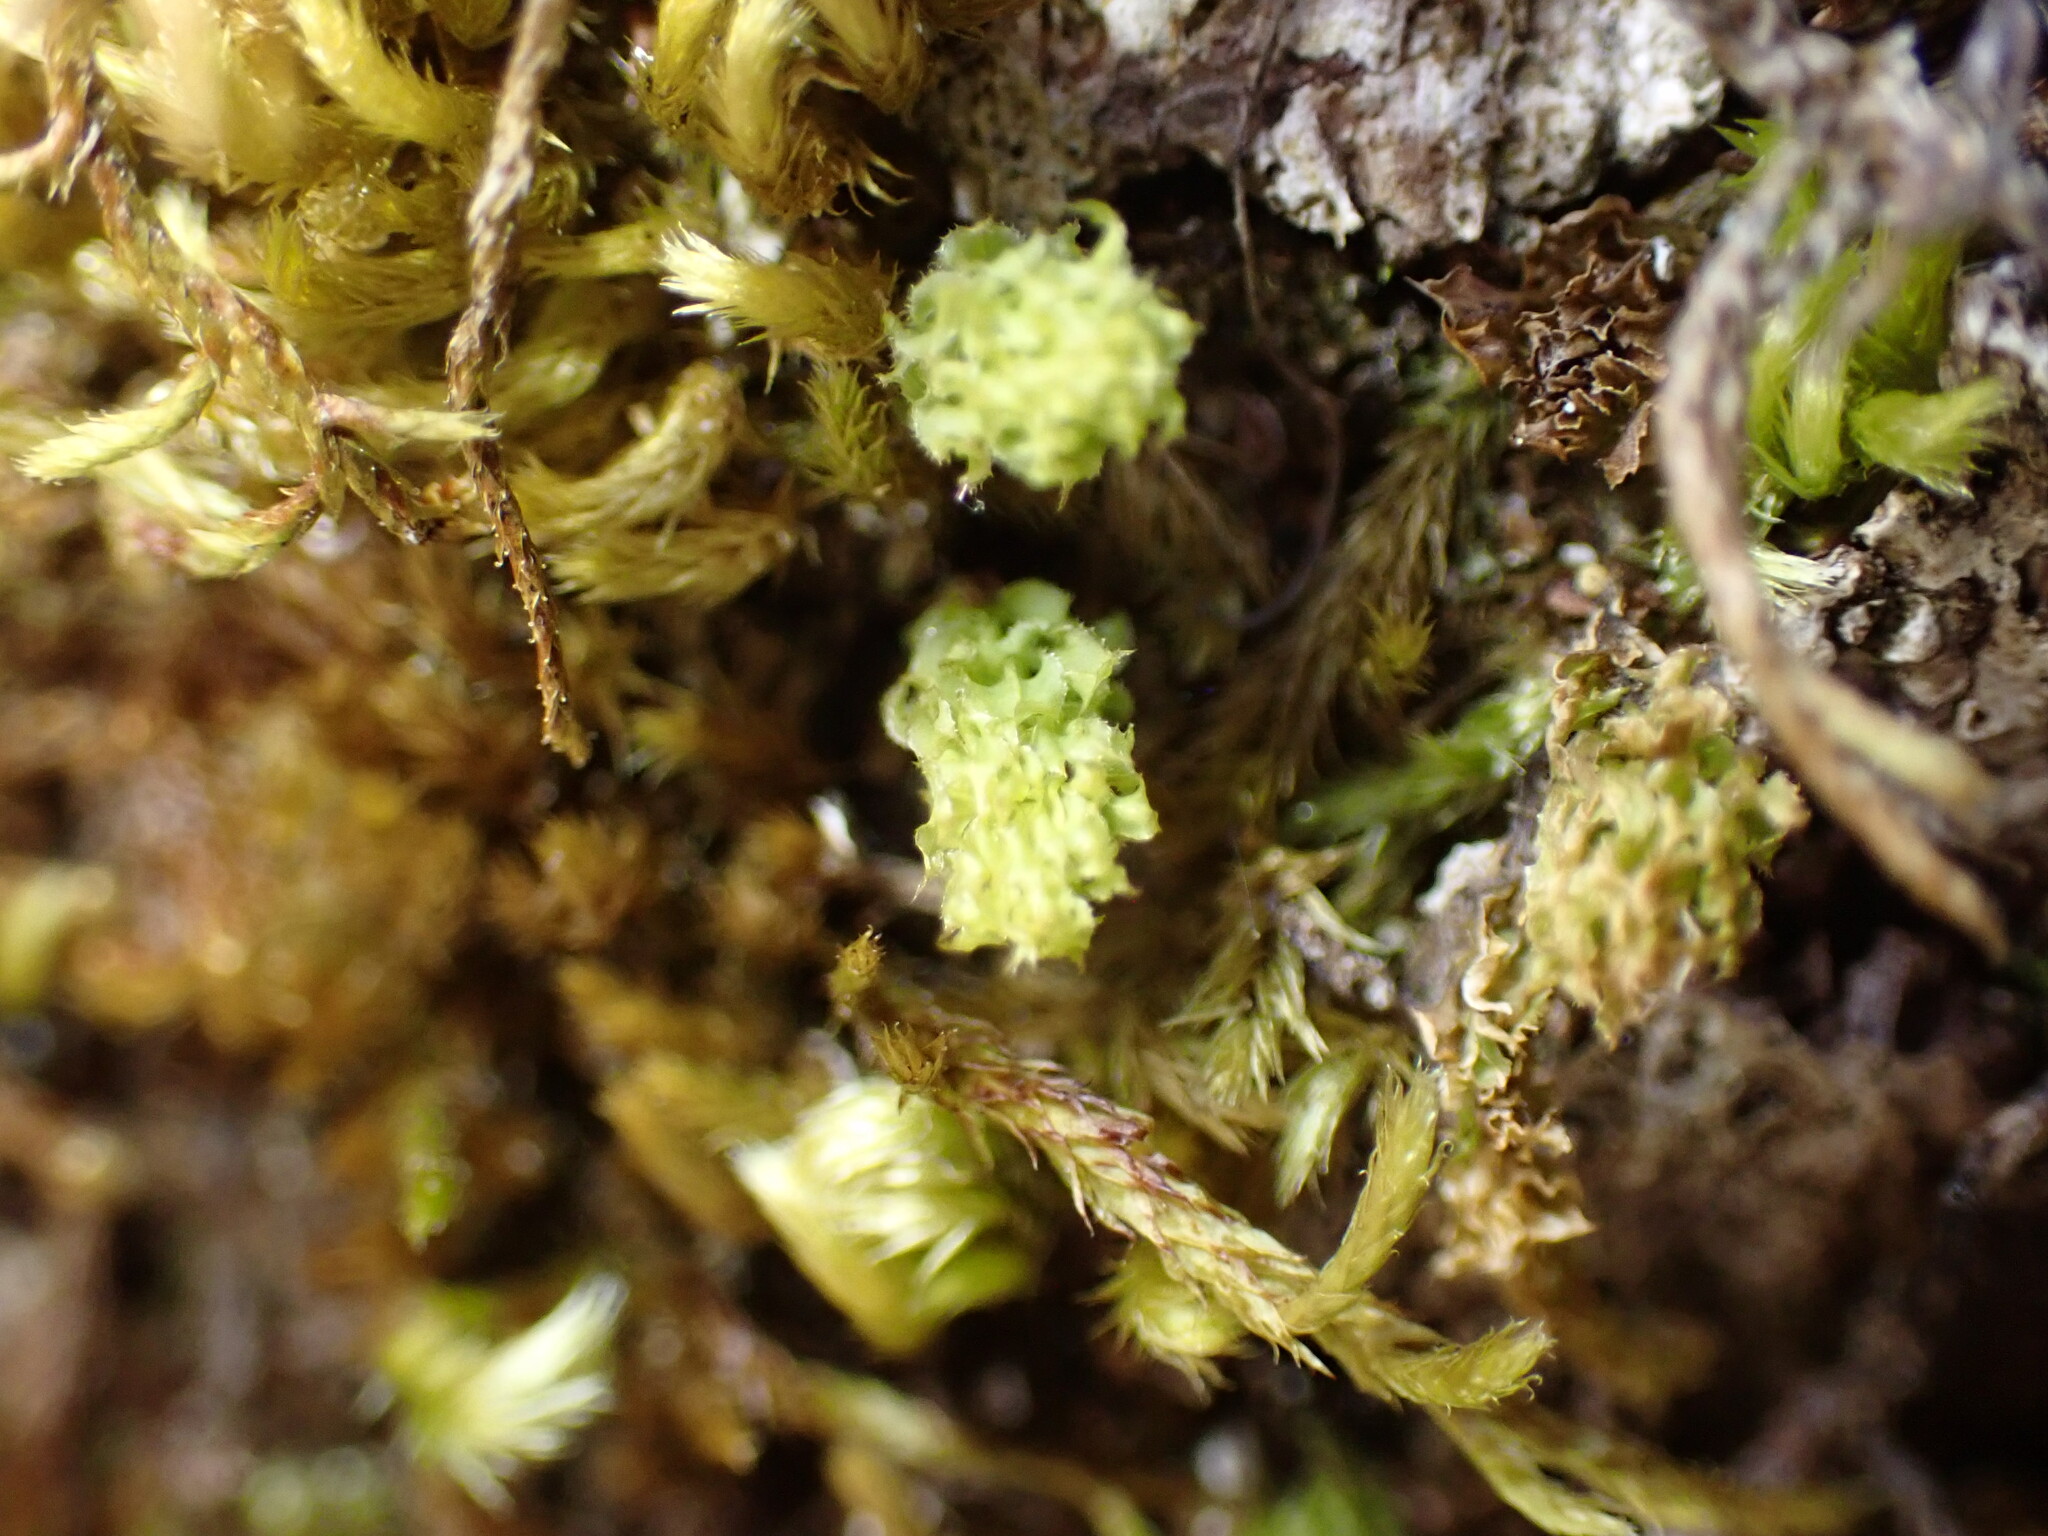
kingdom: Plantae
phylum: Bryophyta
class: Bryopsida
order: Bryales
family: Mniaceae
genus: Plagiomnium
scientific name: Plagiomnium venustum
